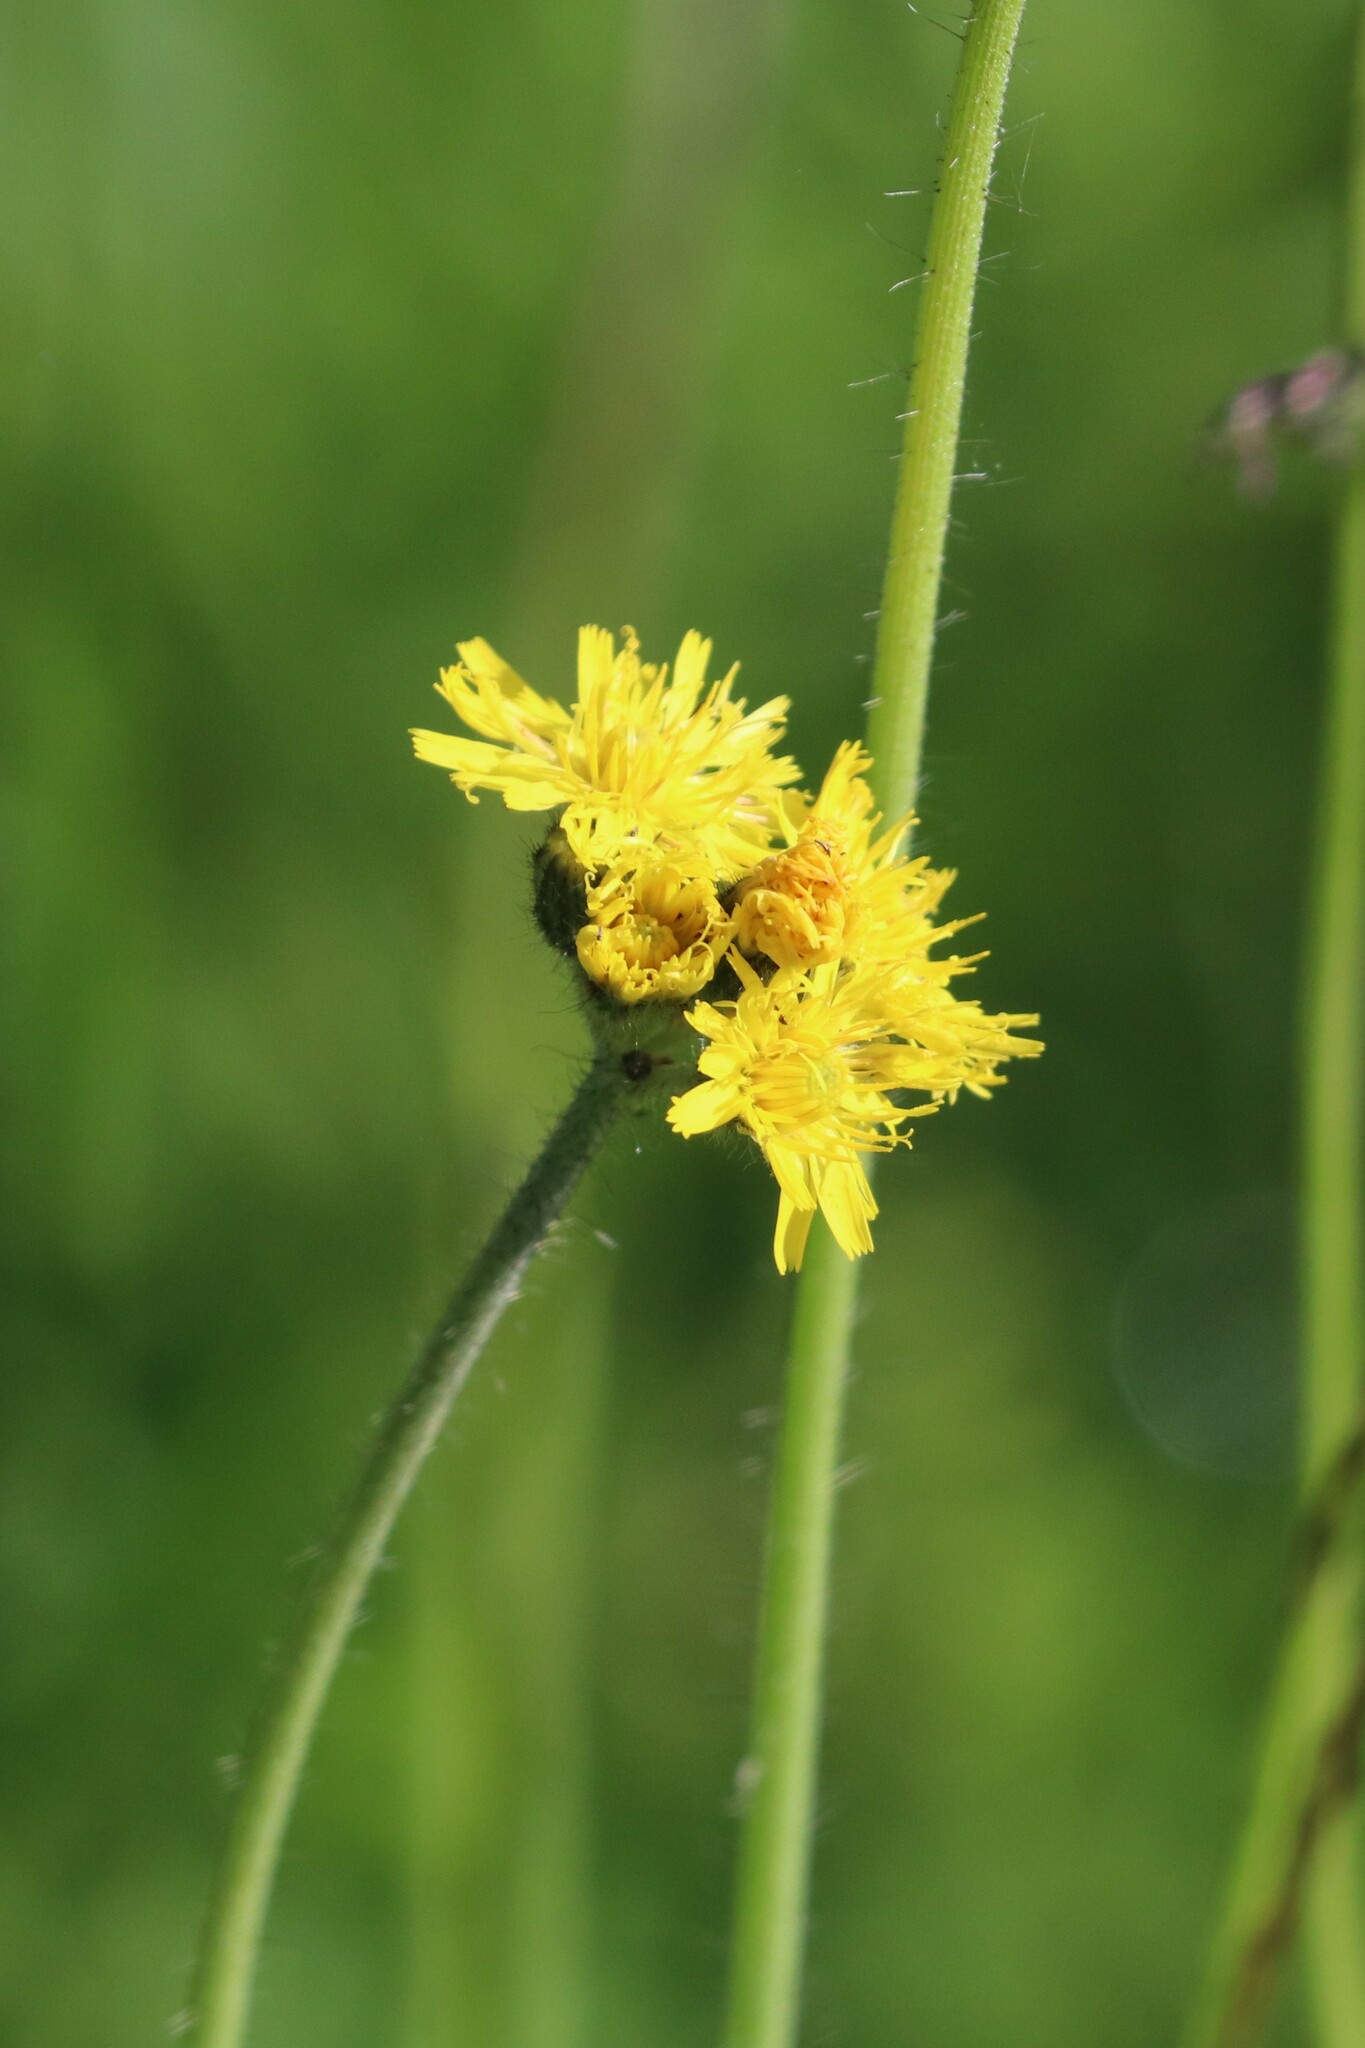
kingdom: Plantae
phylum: Tracheophyta
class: Magnoliopsida
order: Asterales
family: Asteraceae
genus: Pilosella
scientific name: Pilosella
